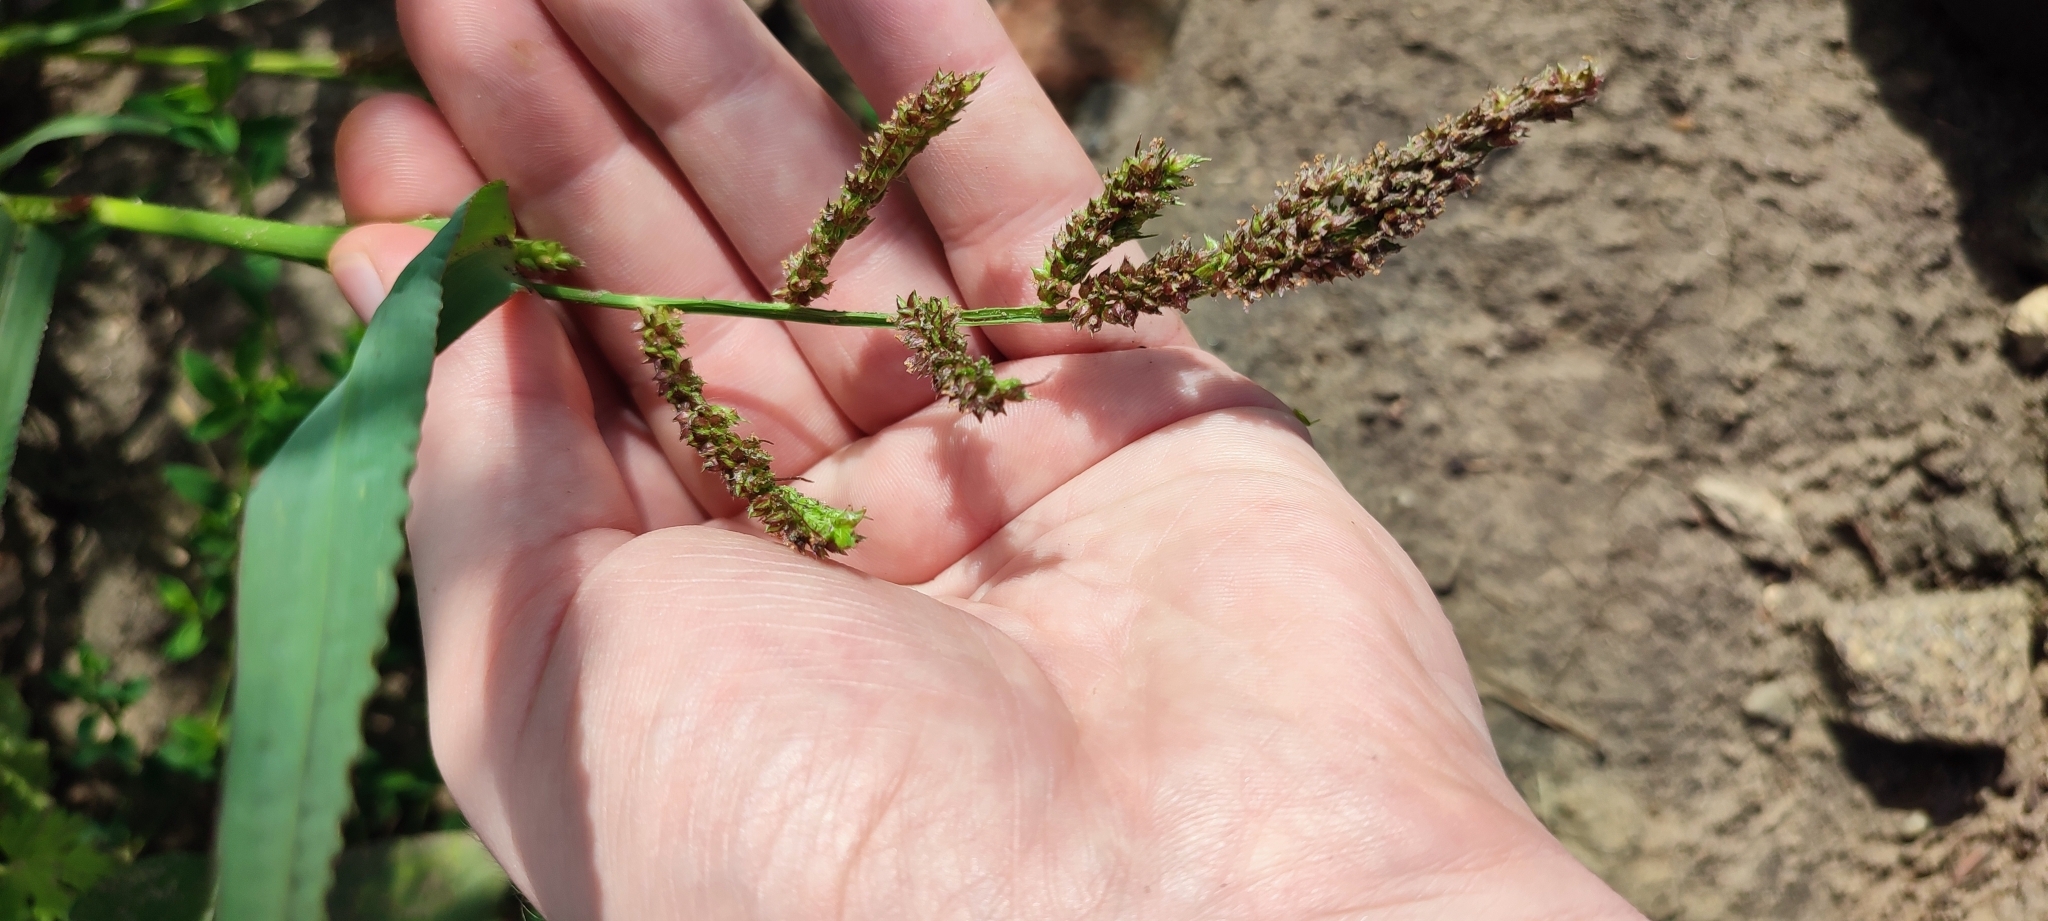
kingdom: Plantae
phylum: Tracheophyta
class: Liliopsida
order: Poales
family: Poaceae
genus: Echinochloa
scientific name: Echinochloa crus-galli
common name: Cockspur
